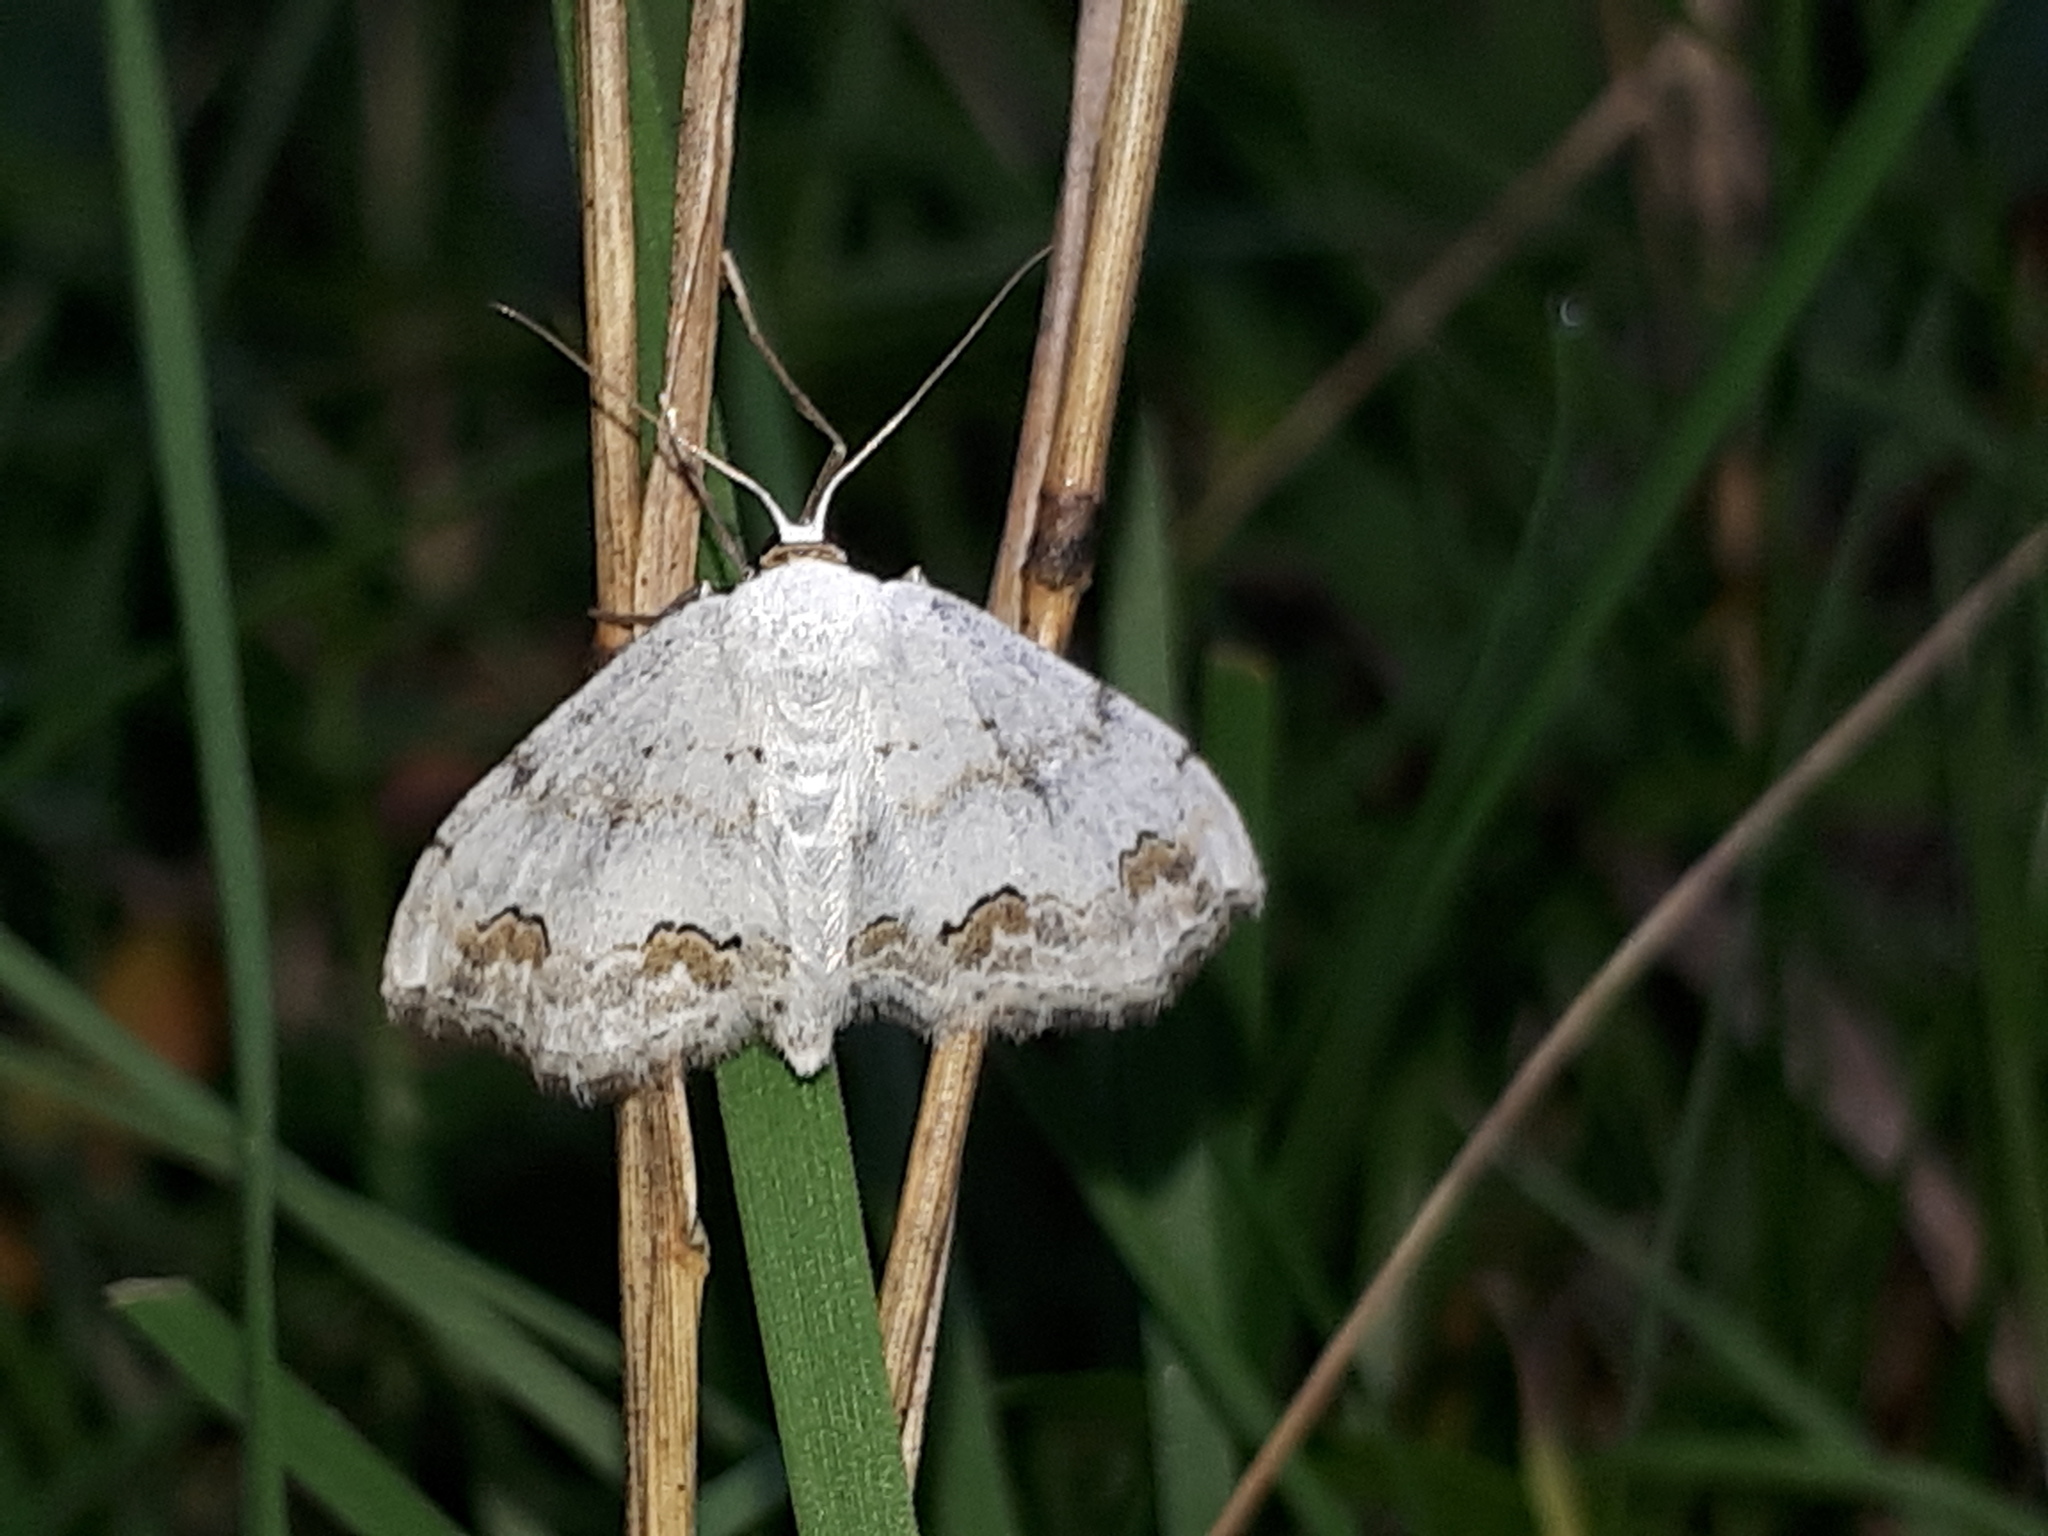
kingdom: Animalia
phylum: Arthropoda
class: Insecta
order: Lepidoptera
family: Geometridae
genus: Scopula
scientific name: Scopula ornata
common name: Lace border
